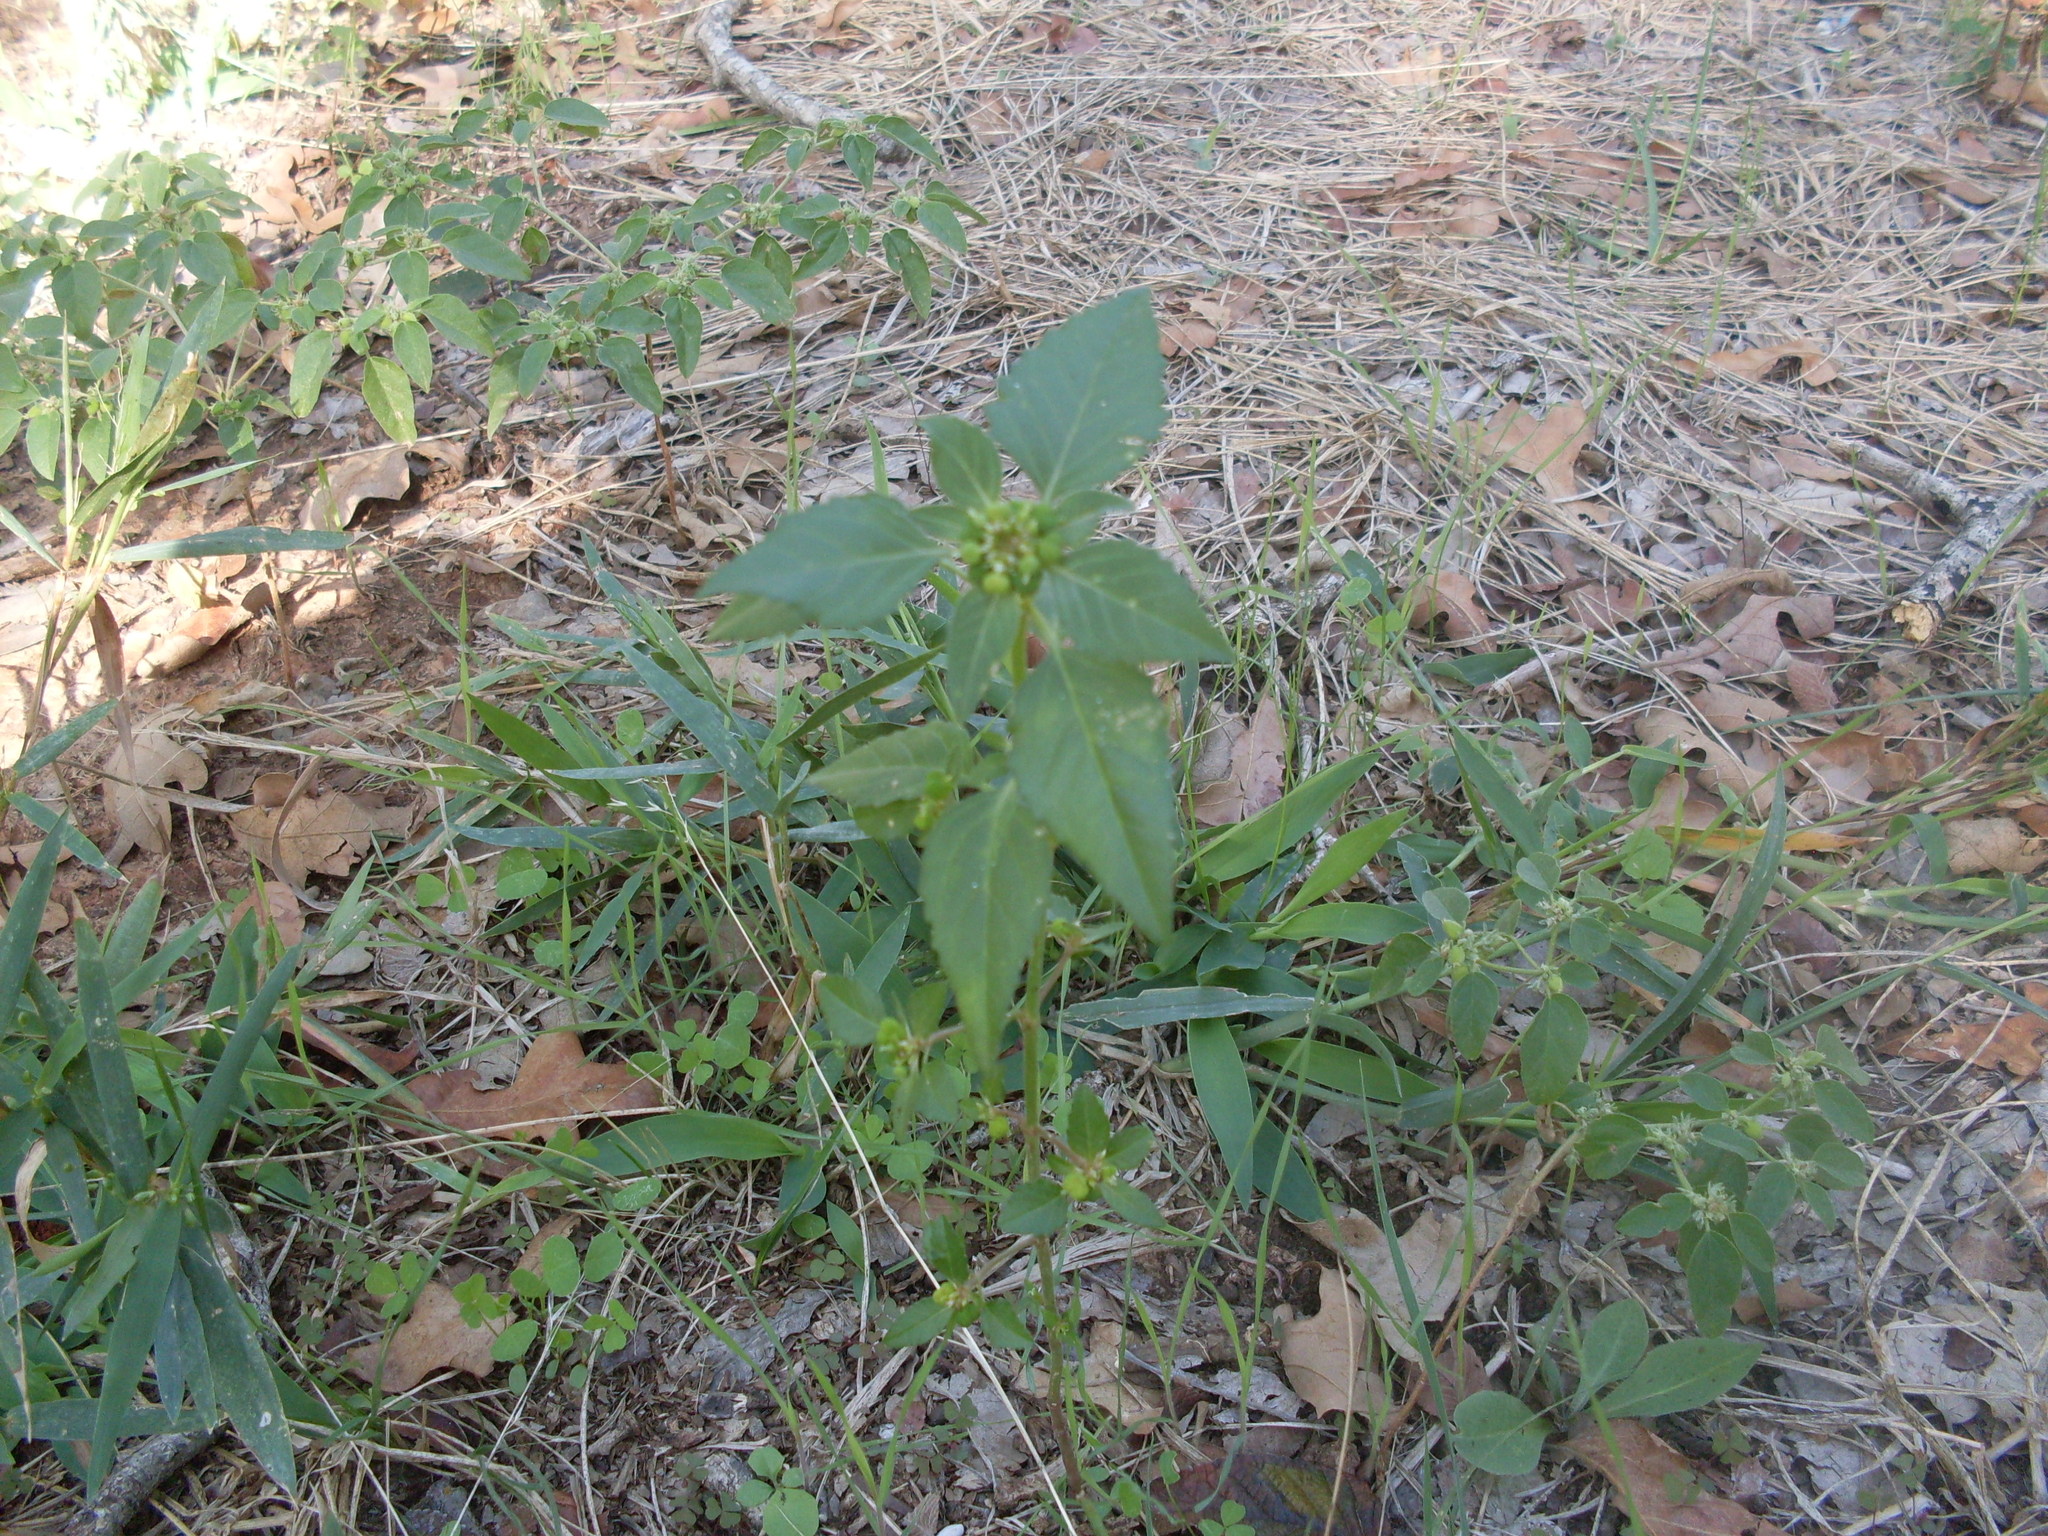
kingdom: Plantae
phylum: Tracheophyta
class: Magnoliopsida
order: Malpighiales
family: Euphorbiaceae
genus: Euphorbia
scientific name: Euphorbia dentata
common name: Dentate spurge
